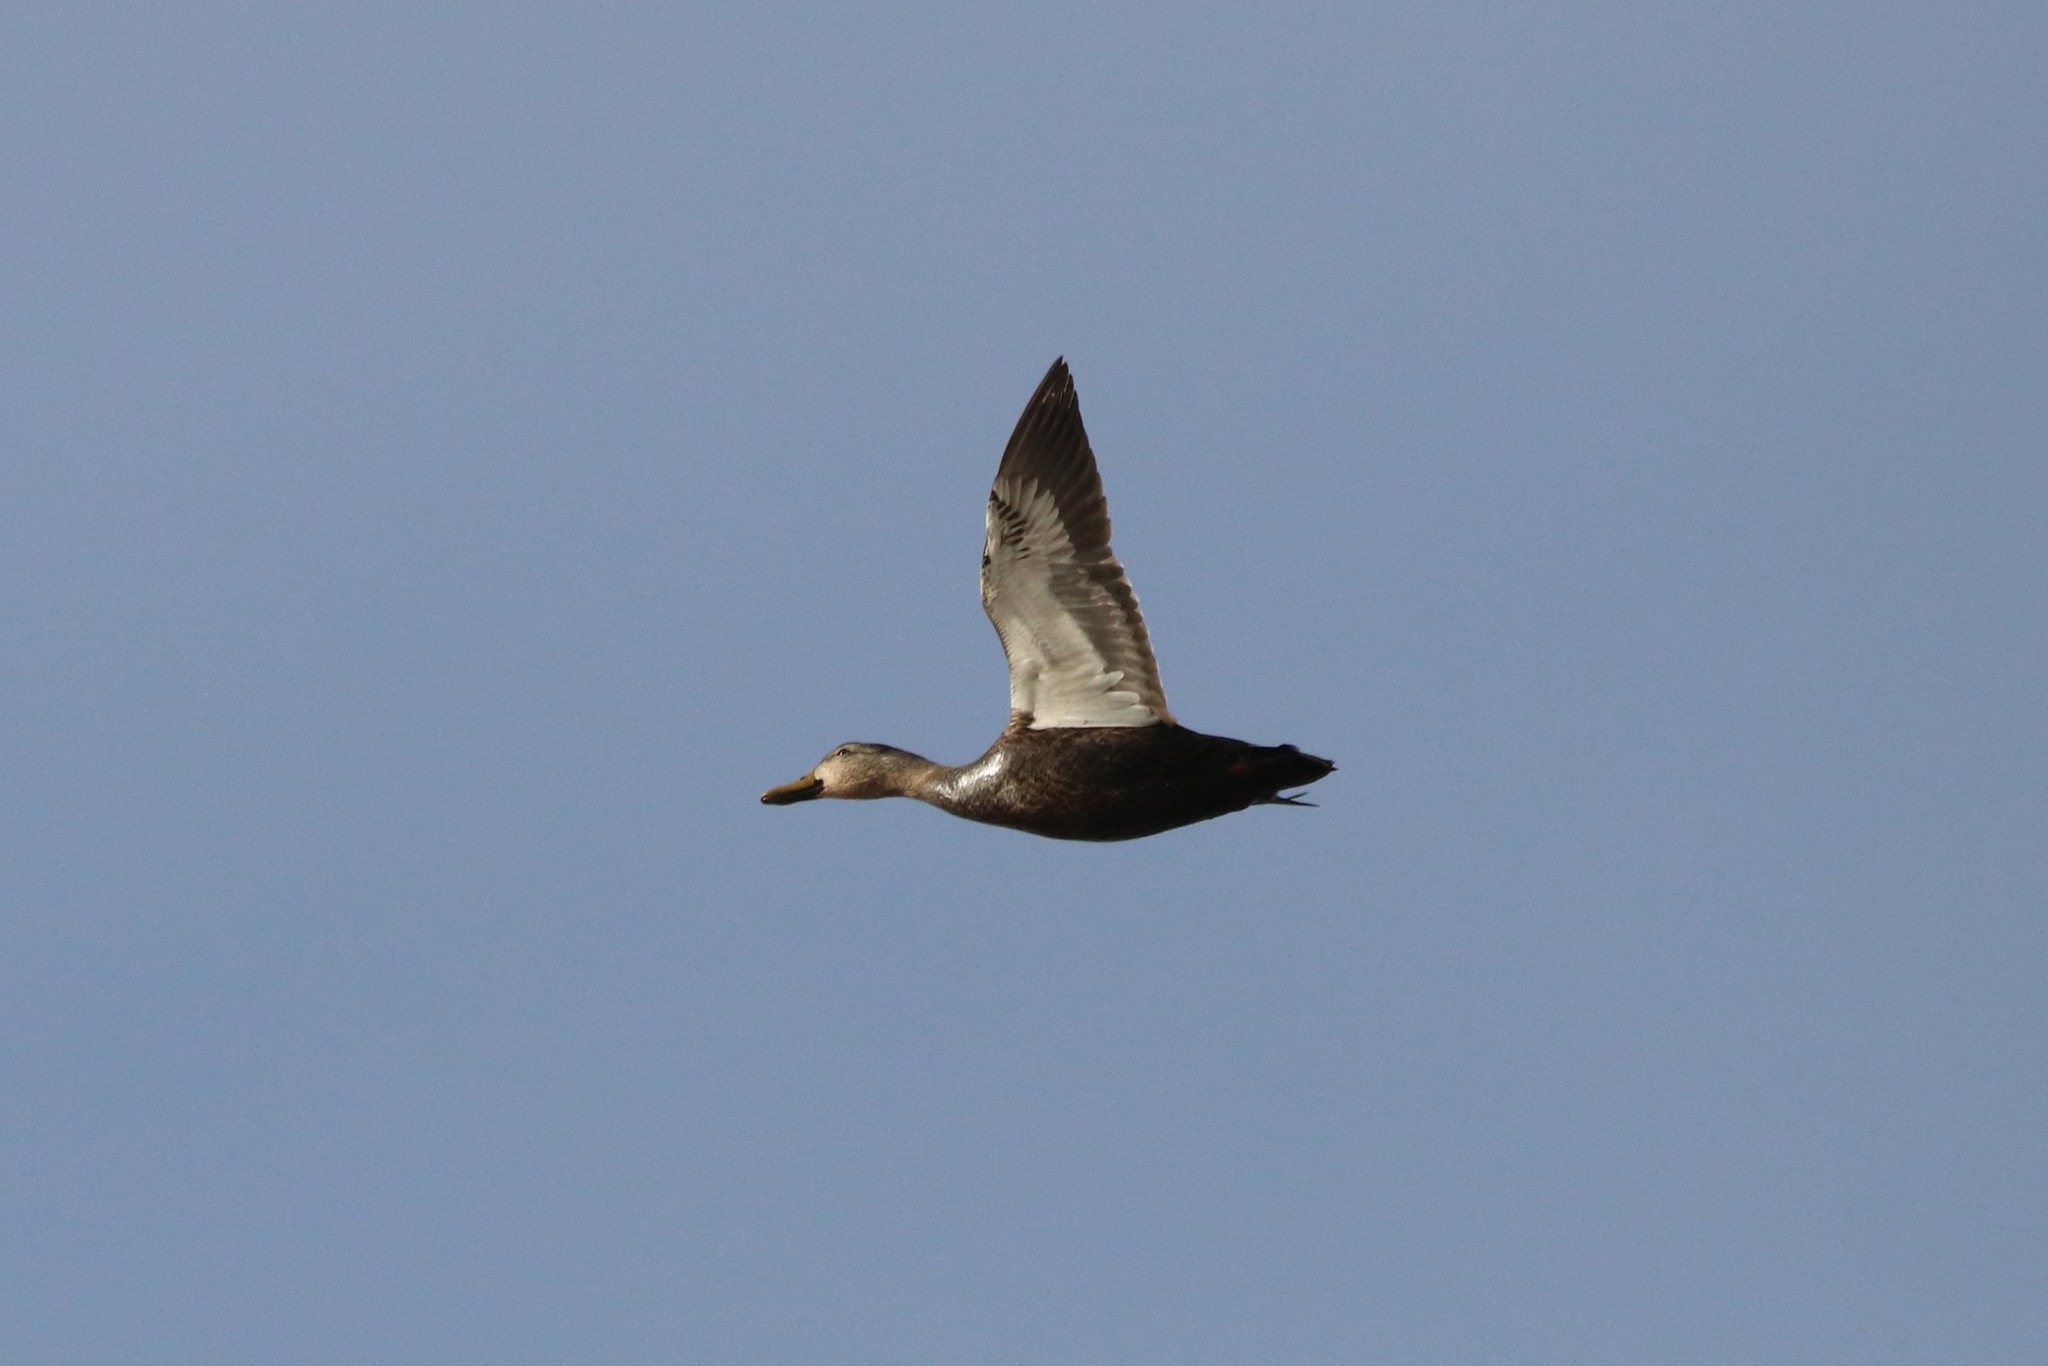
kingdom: Animalia
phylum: Chordata
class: Aves
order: Anseriformes
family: Anatidae
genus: Anas
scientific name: Anas rubripes
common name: American black duck
